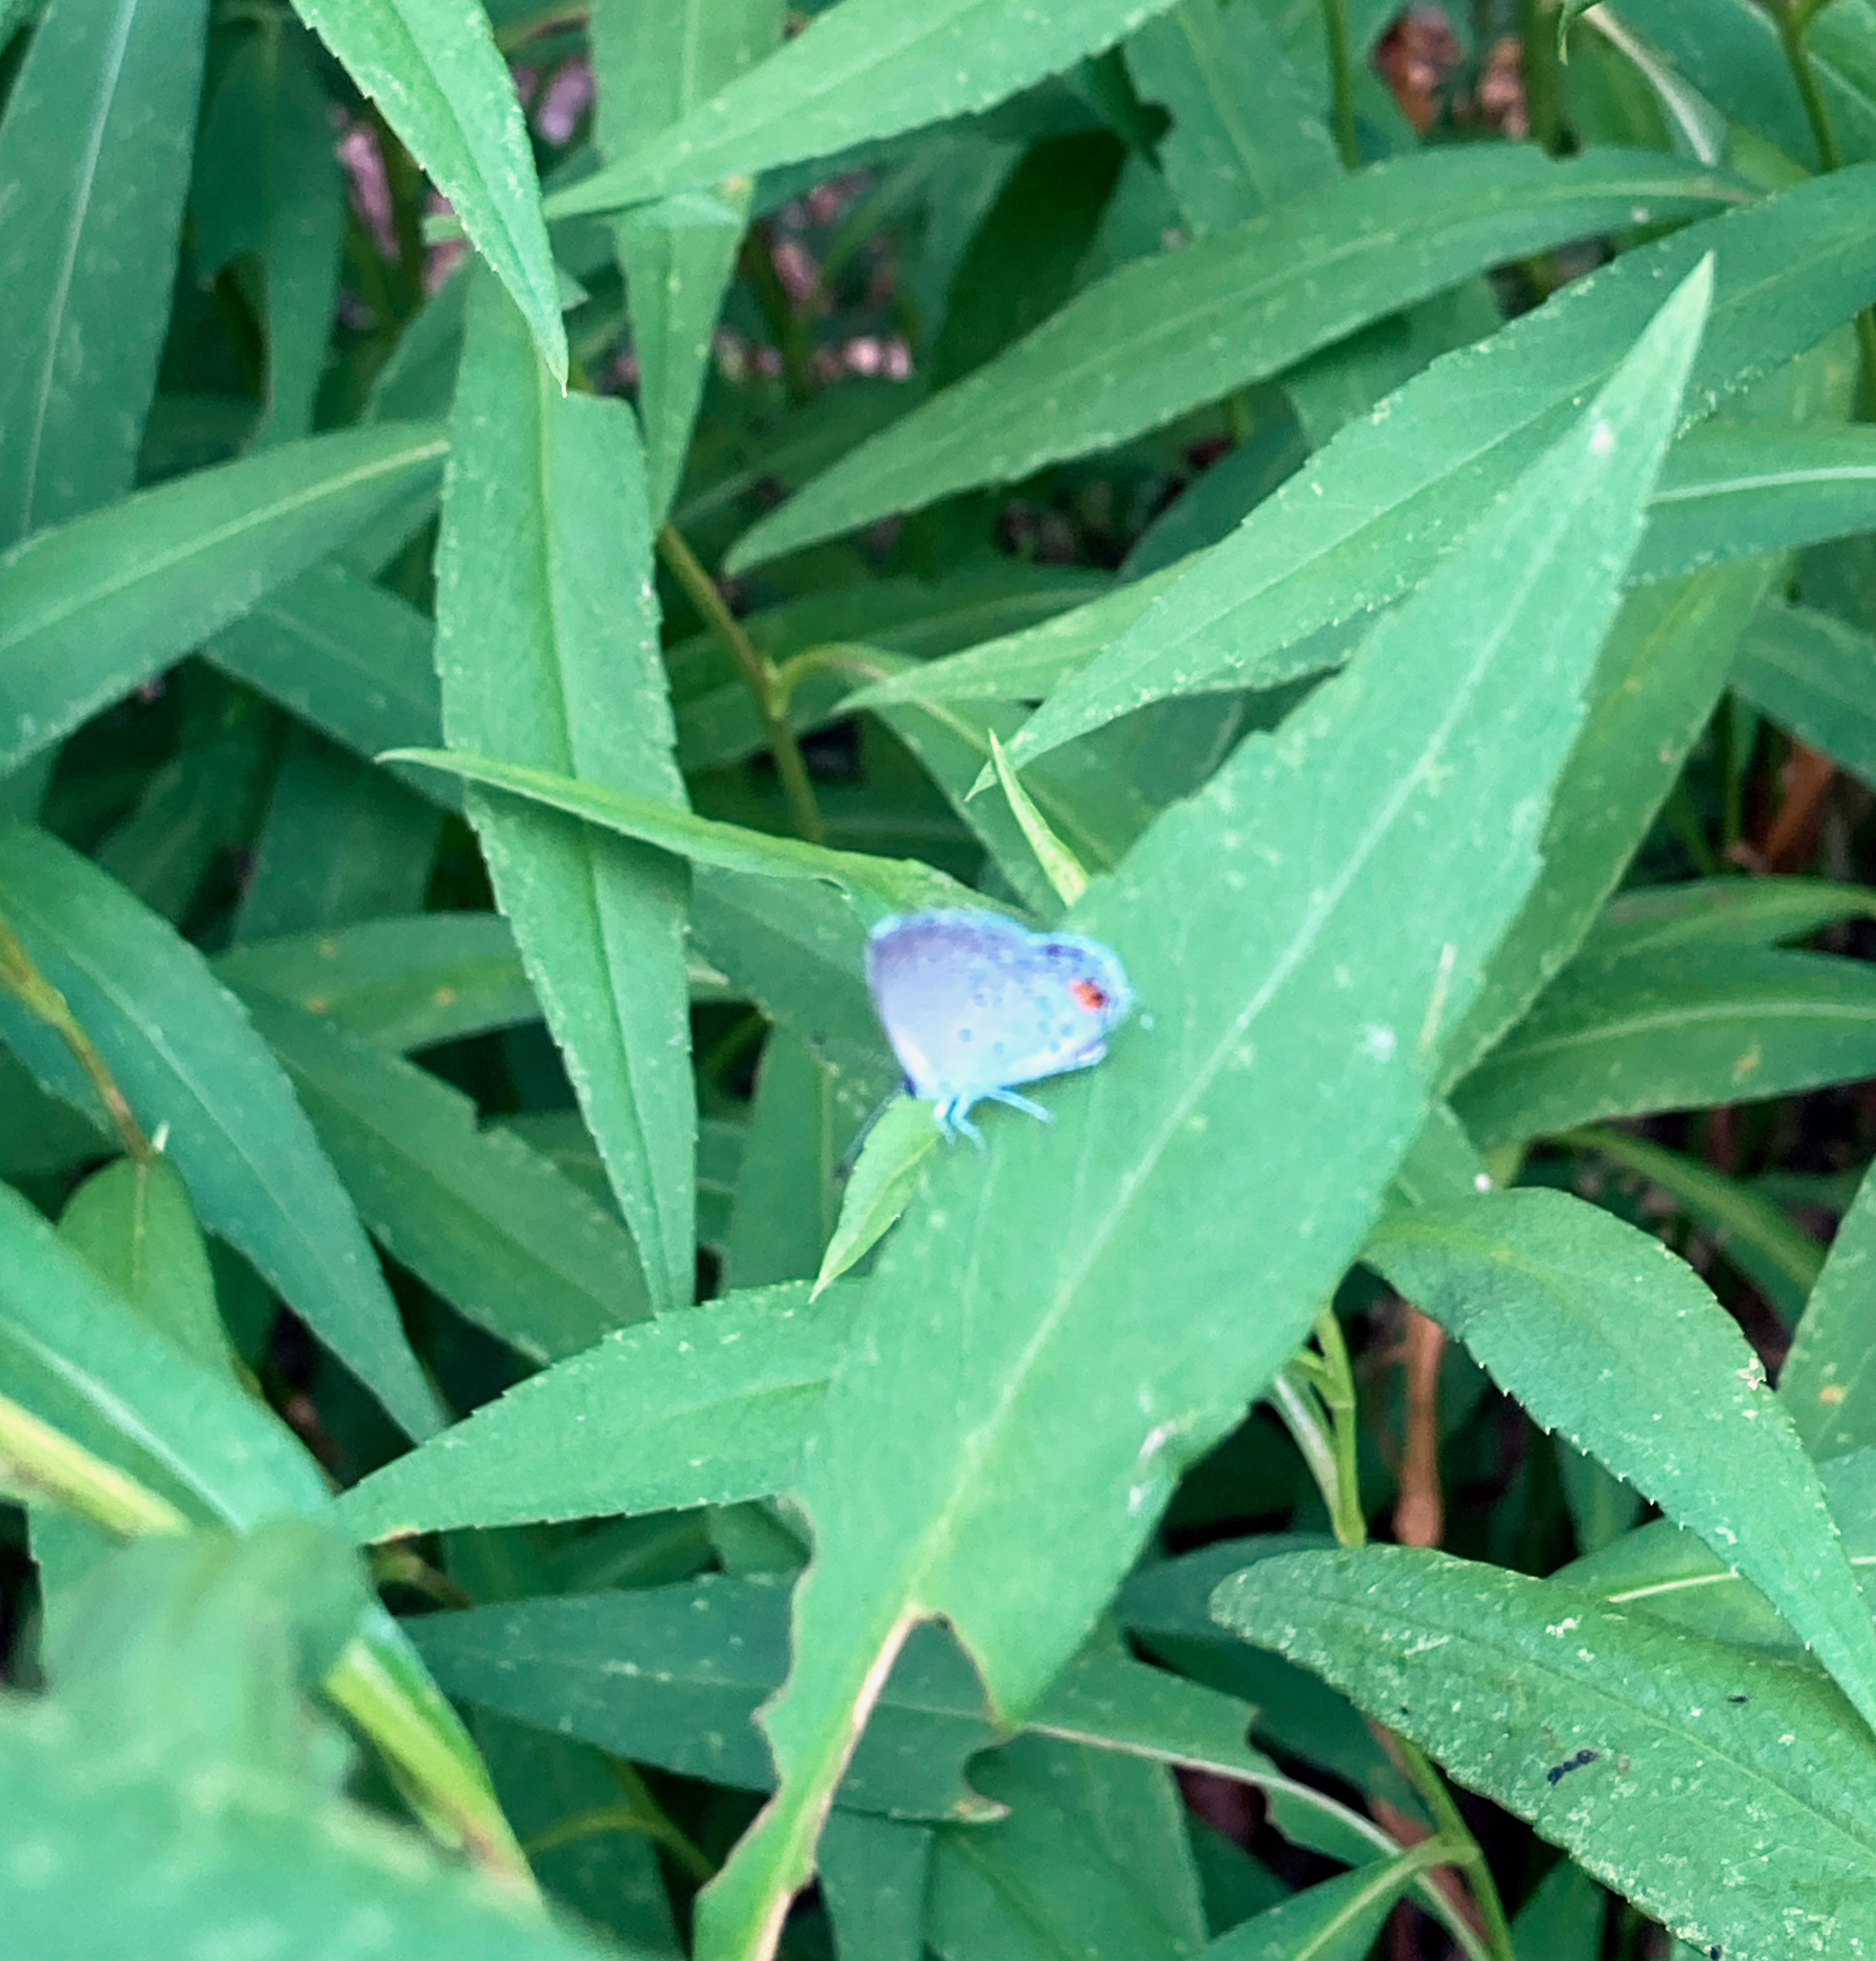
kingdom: Animalia
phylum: Arthropoda
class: Insecta
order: Lepidoptera
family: Lycaenidae
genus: Elkalyce
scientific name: Elkalyce comyntas
